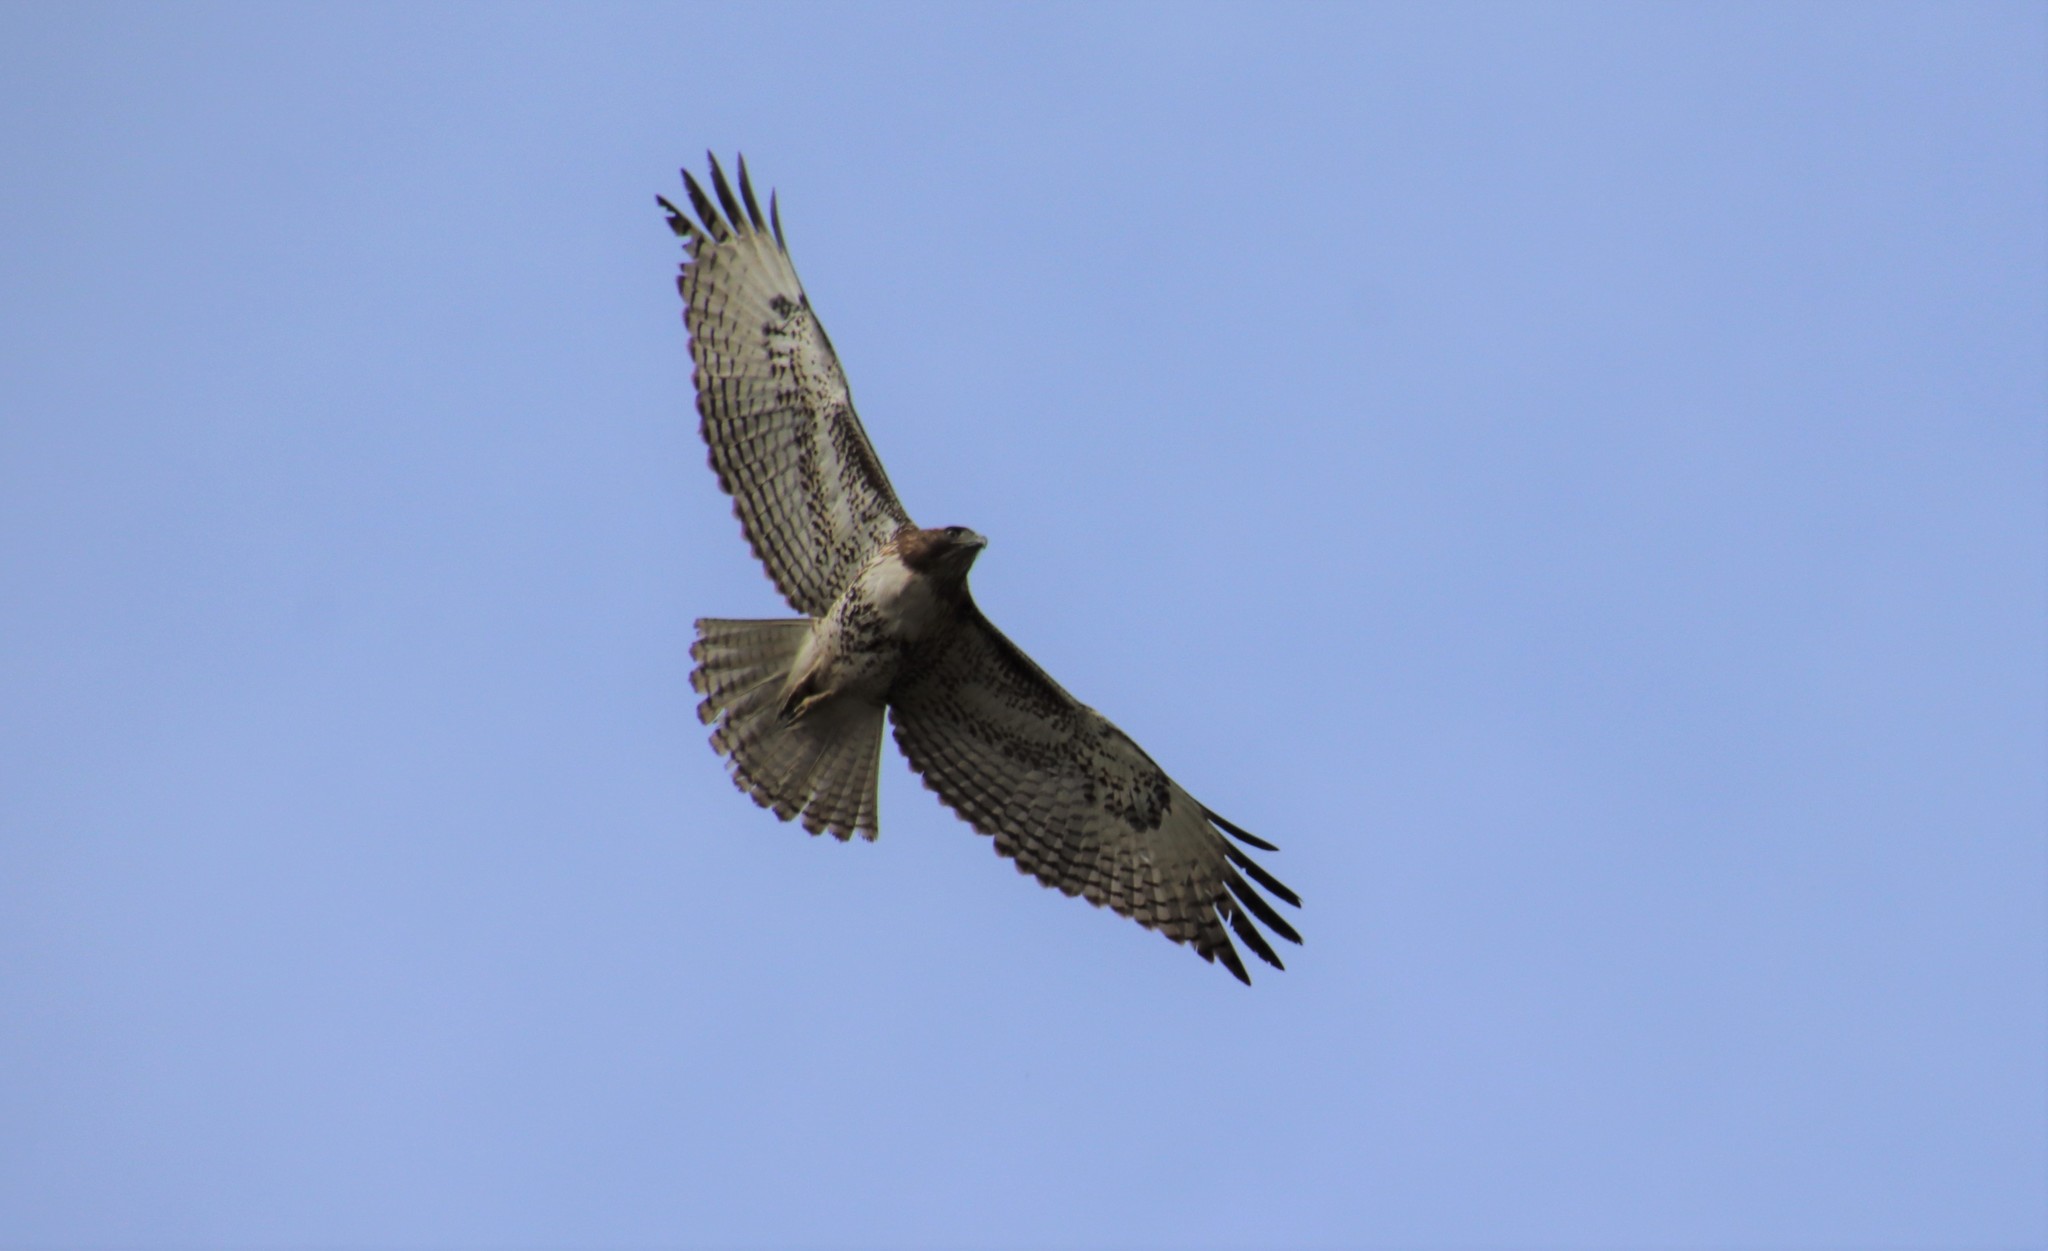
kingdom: Animalia
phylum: Chordata
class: Aves
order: Accipitriformes
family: Accipitridae
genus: Buteo
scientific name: Buteo jamaicensis
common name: Red-tailed hawk
